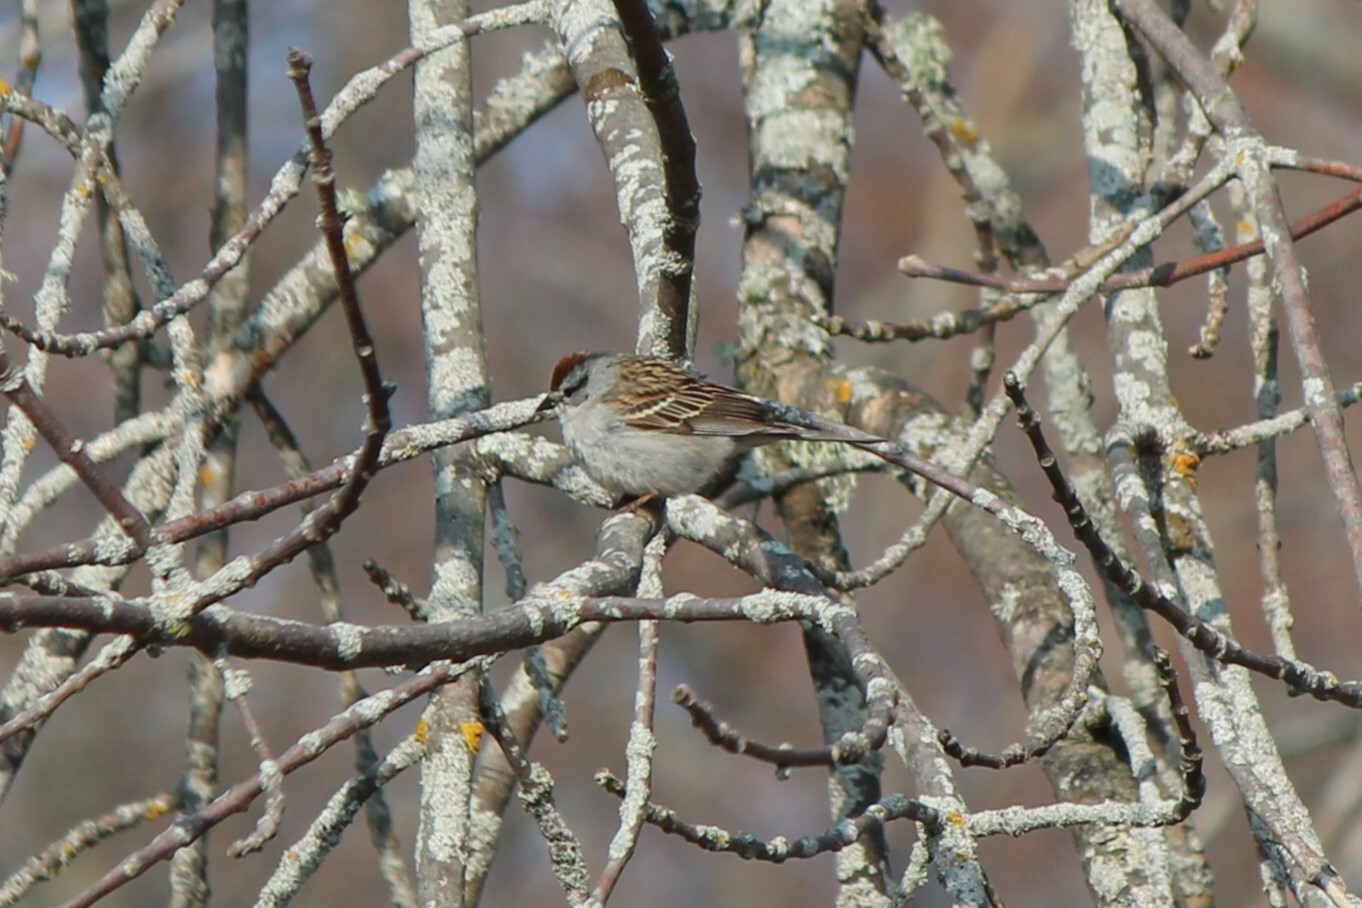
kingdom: Animalia
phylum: Chordata
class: Aves
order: Passeriformes
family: Passerellidae
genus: Spizella
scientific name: Spizella passerina
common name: Chipping sparrow
